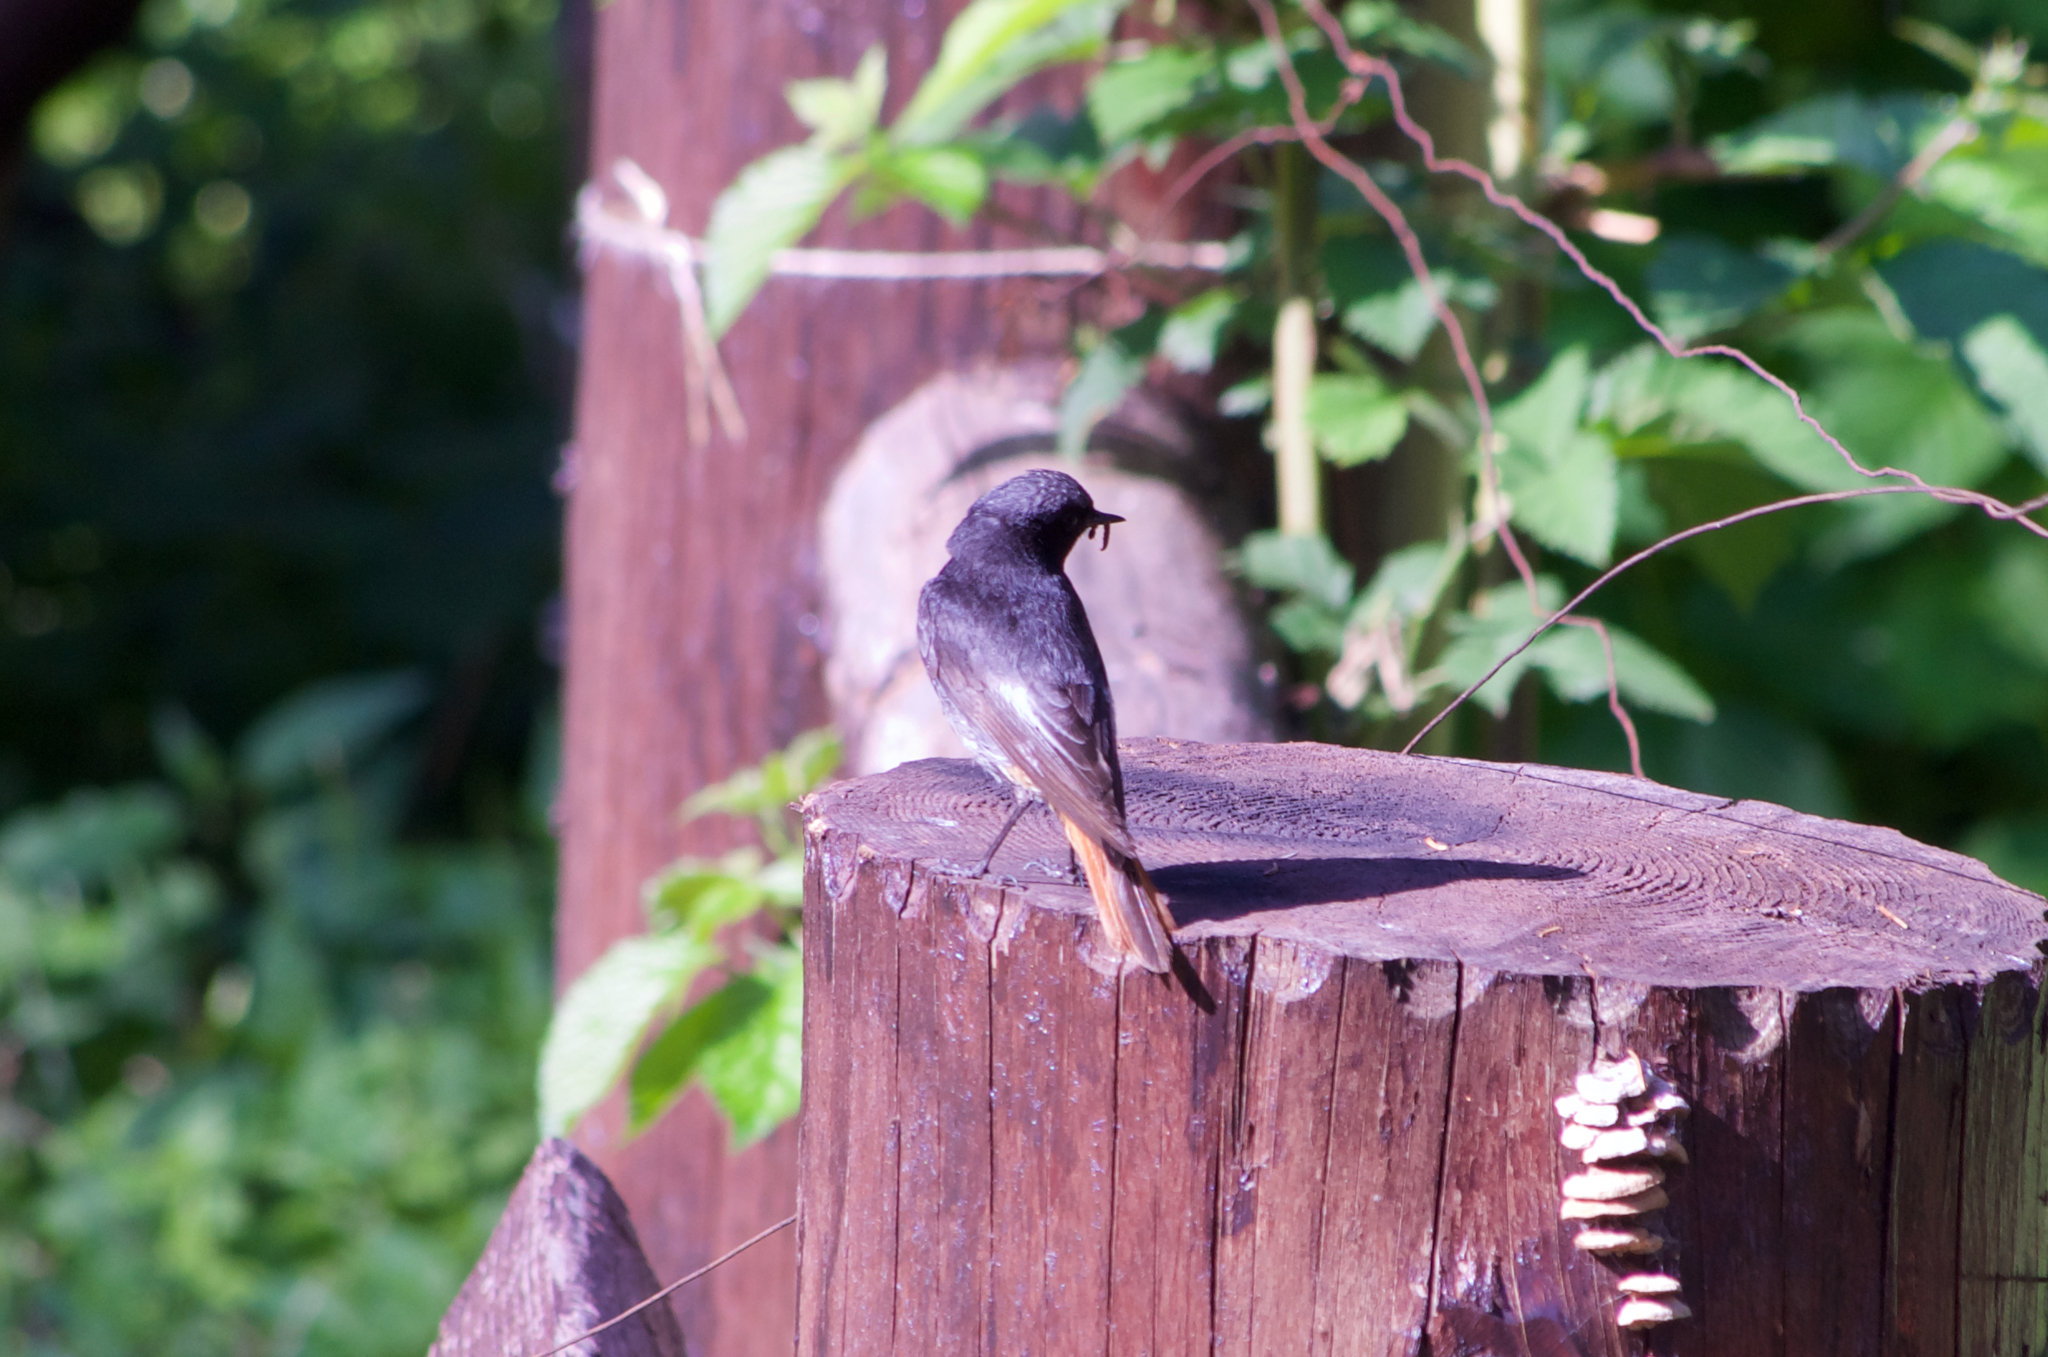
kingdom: Animalia
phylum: Chordata
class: Aves
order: Passeriformes
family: Muscicapidae
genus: Phoenicurus
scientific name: Phoenicurus ochruros
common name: Black redstart
